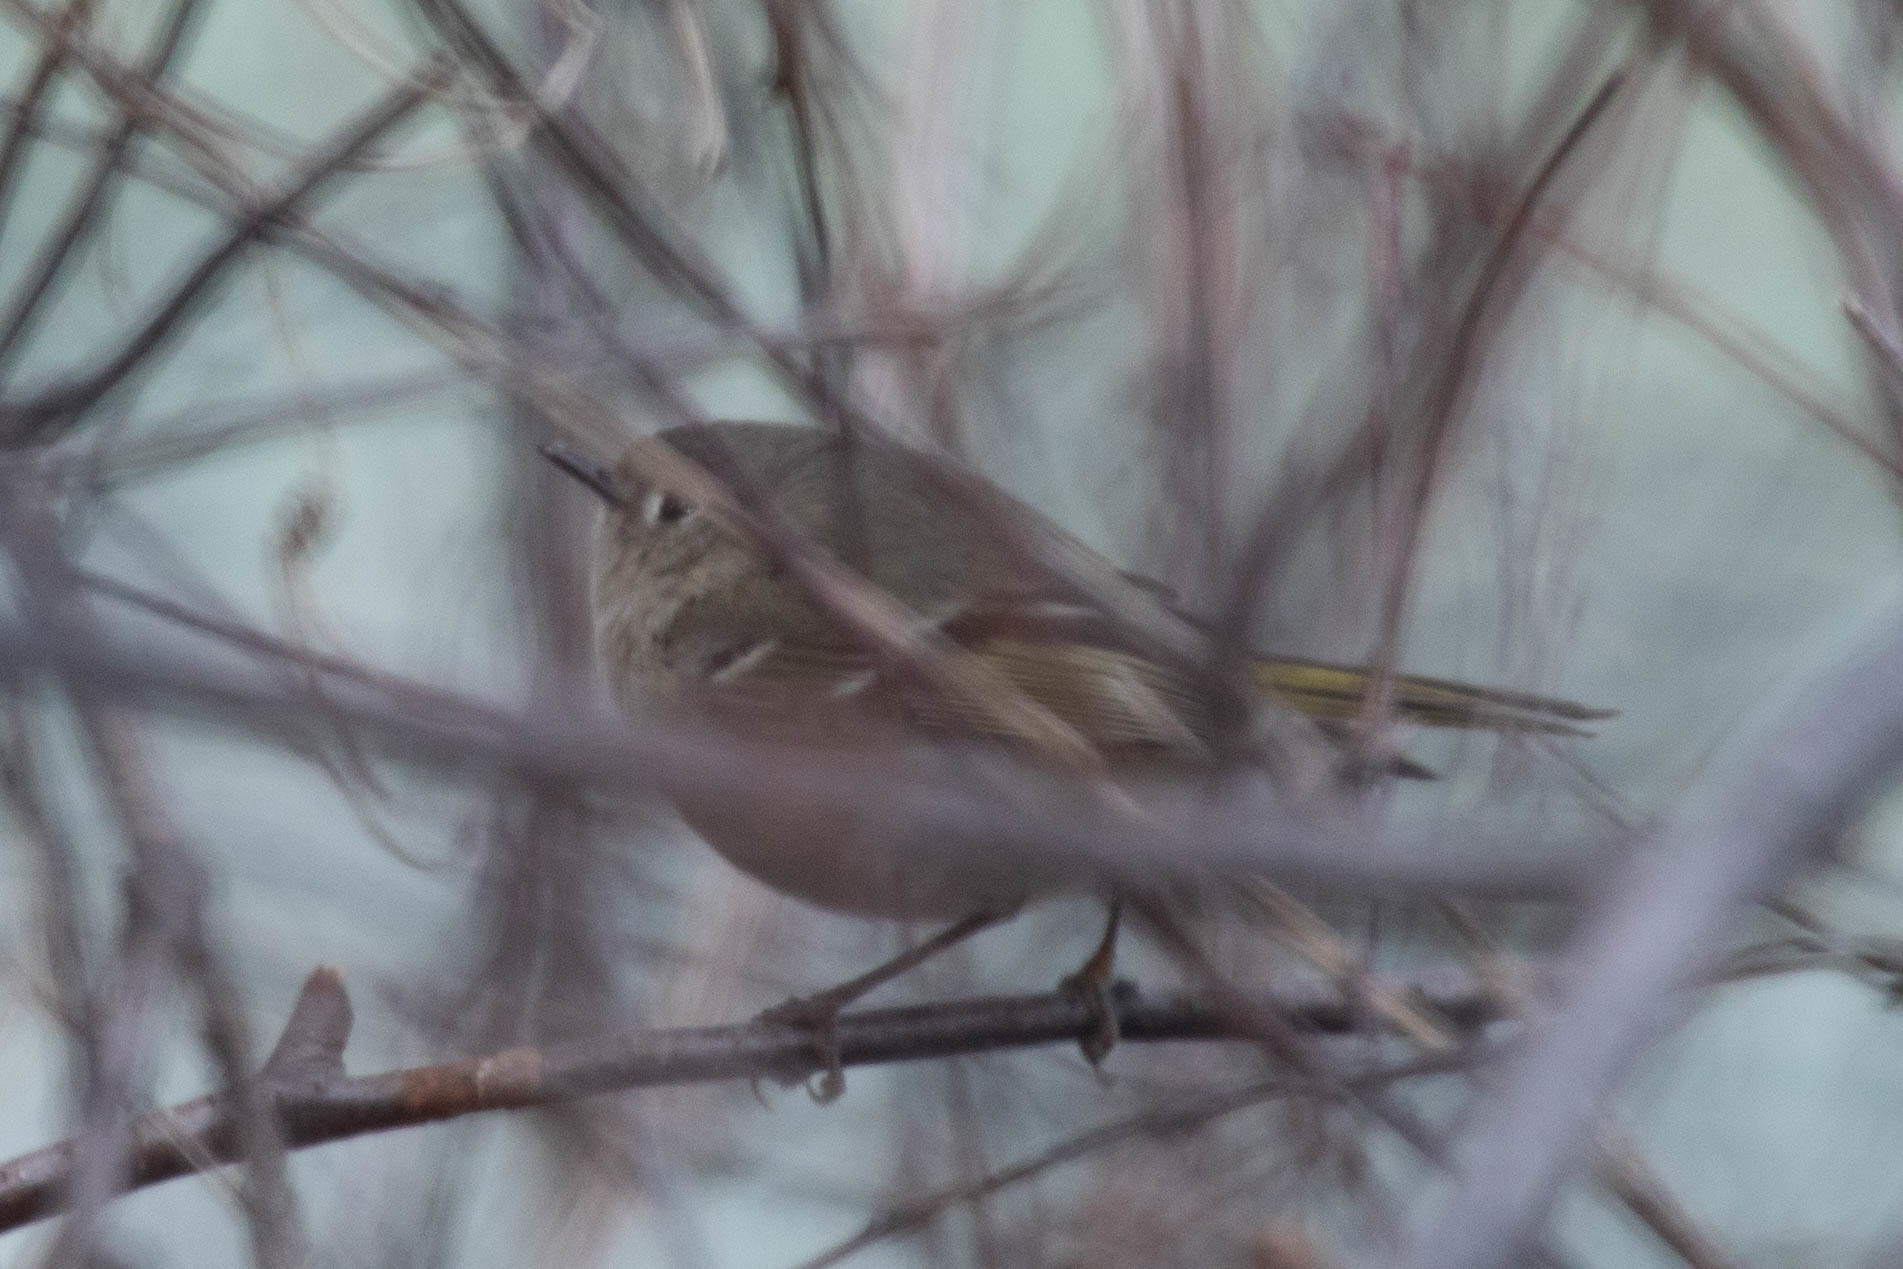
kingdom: Animalia
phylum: Chordata
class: Aves
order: Passeriformes
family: Regulidae
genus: Regulus
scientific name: Regulus calendula
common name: Ruby-crowned kinglet
